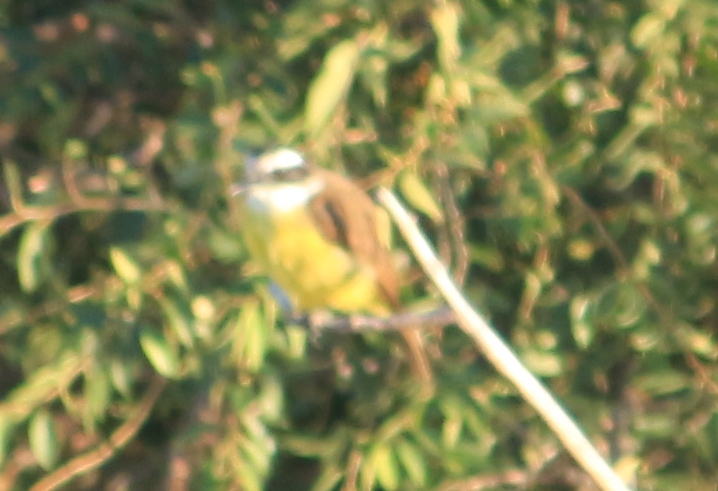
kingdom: Animalia
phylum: Chordata
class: Aves
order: Passeriformes
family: Tyrannidae
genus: Pitangus
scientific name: Pitangus sulphuratus
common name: Great kiskadee
